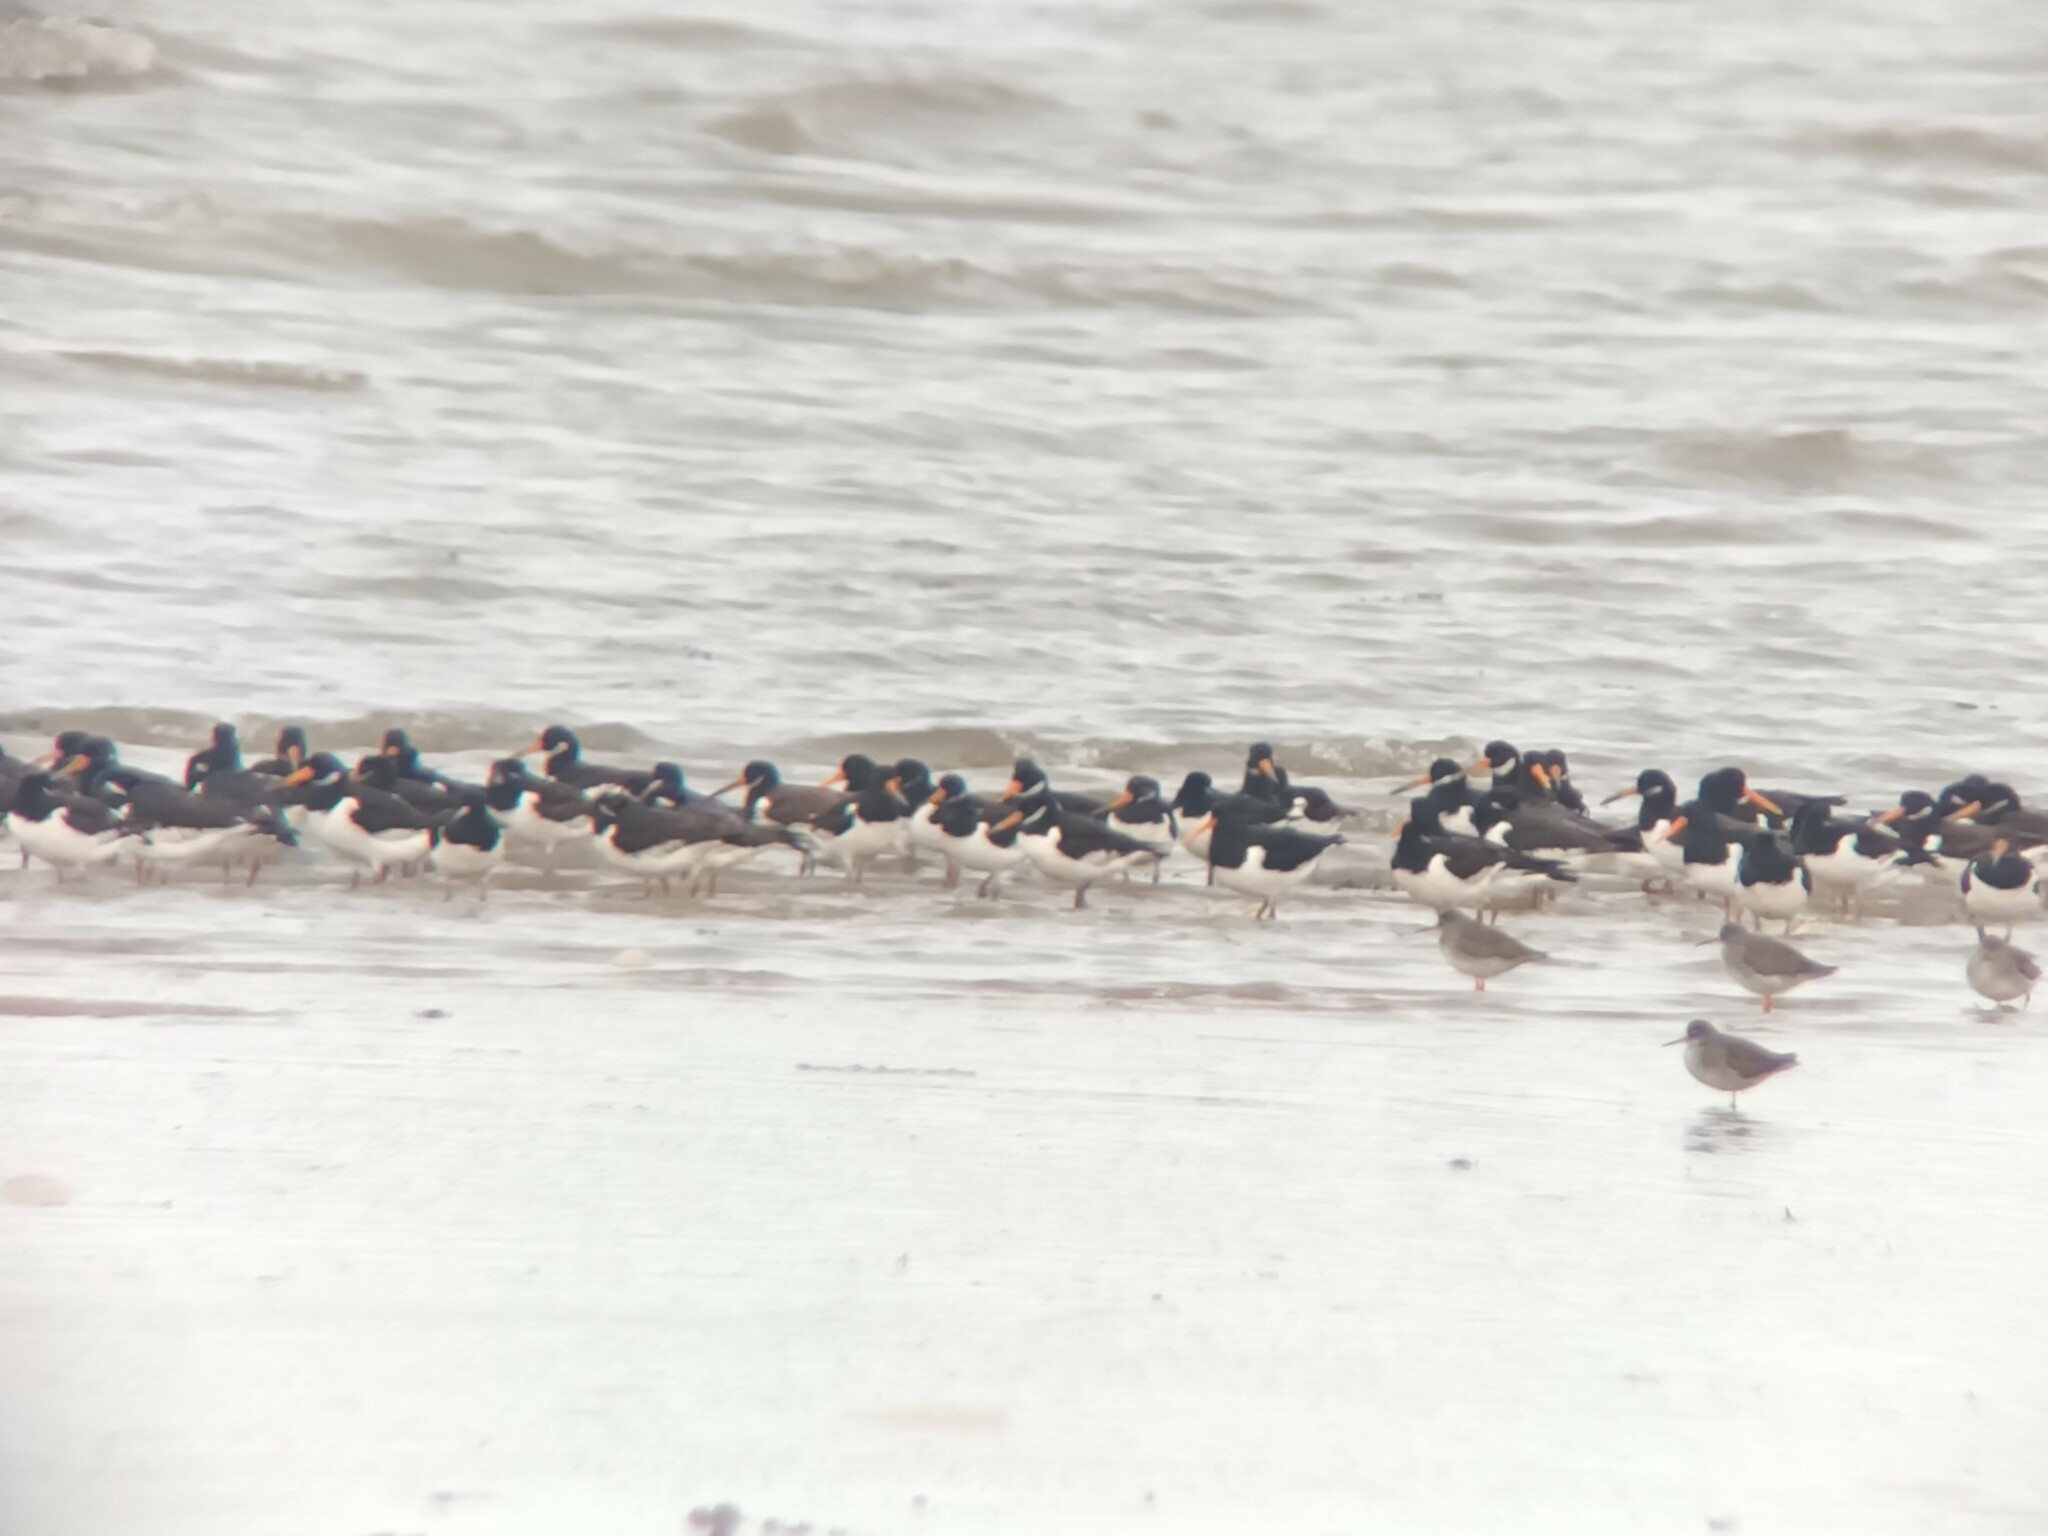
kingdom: Animalia
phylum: Chordata
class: Aves
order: Charadriiformes
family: Haematopodidae
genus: Haematopus
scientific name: Haematopus ostralegus
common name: Eurasian oystercatcher
